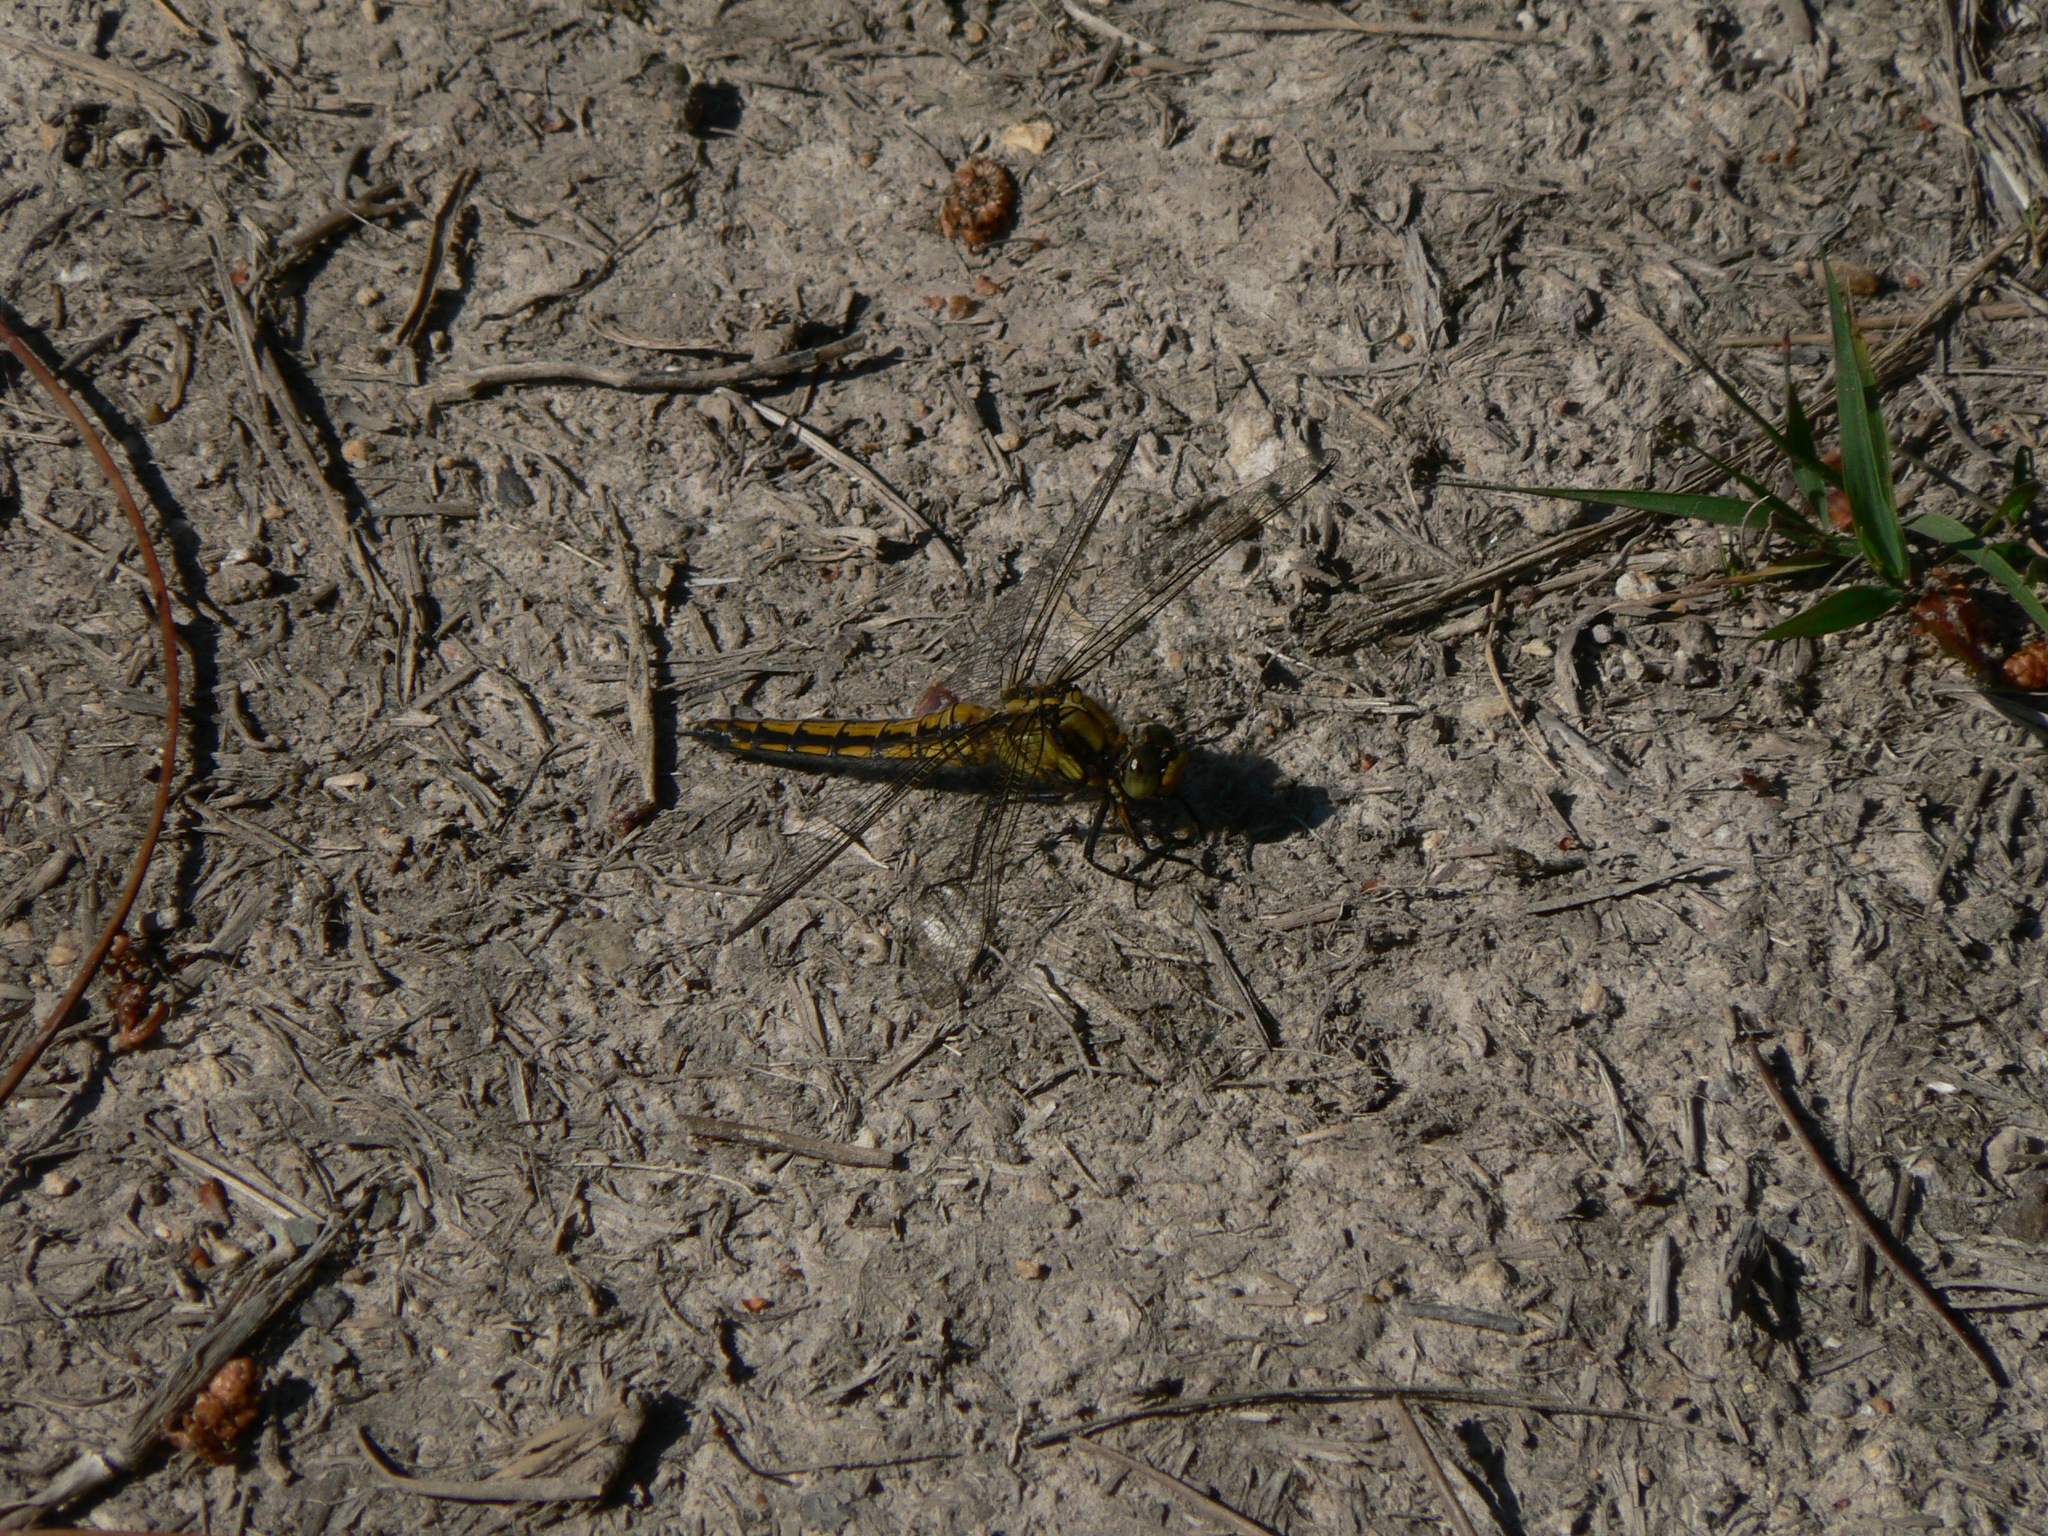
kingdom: Animalia
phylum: Arthropoda
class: Insecta
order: Odonata
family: Libellulidae
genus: Orthetrum
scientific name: Orthetrum cancellatum
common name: Black-tailed skimmer
